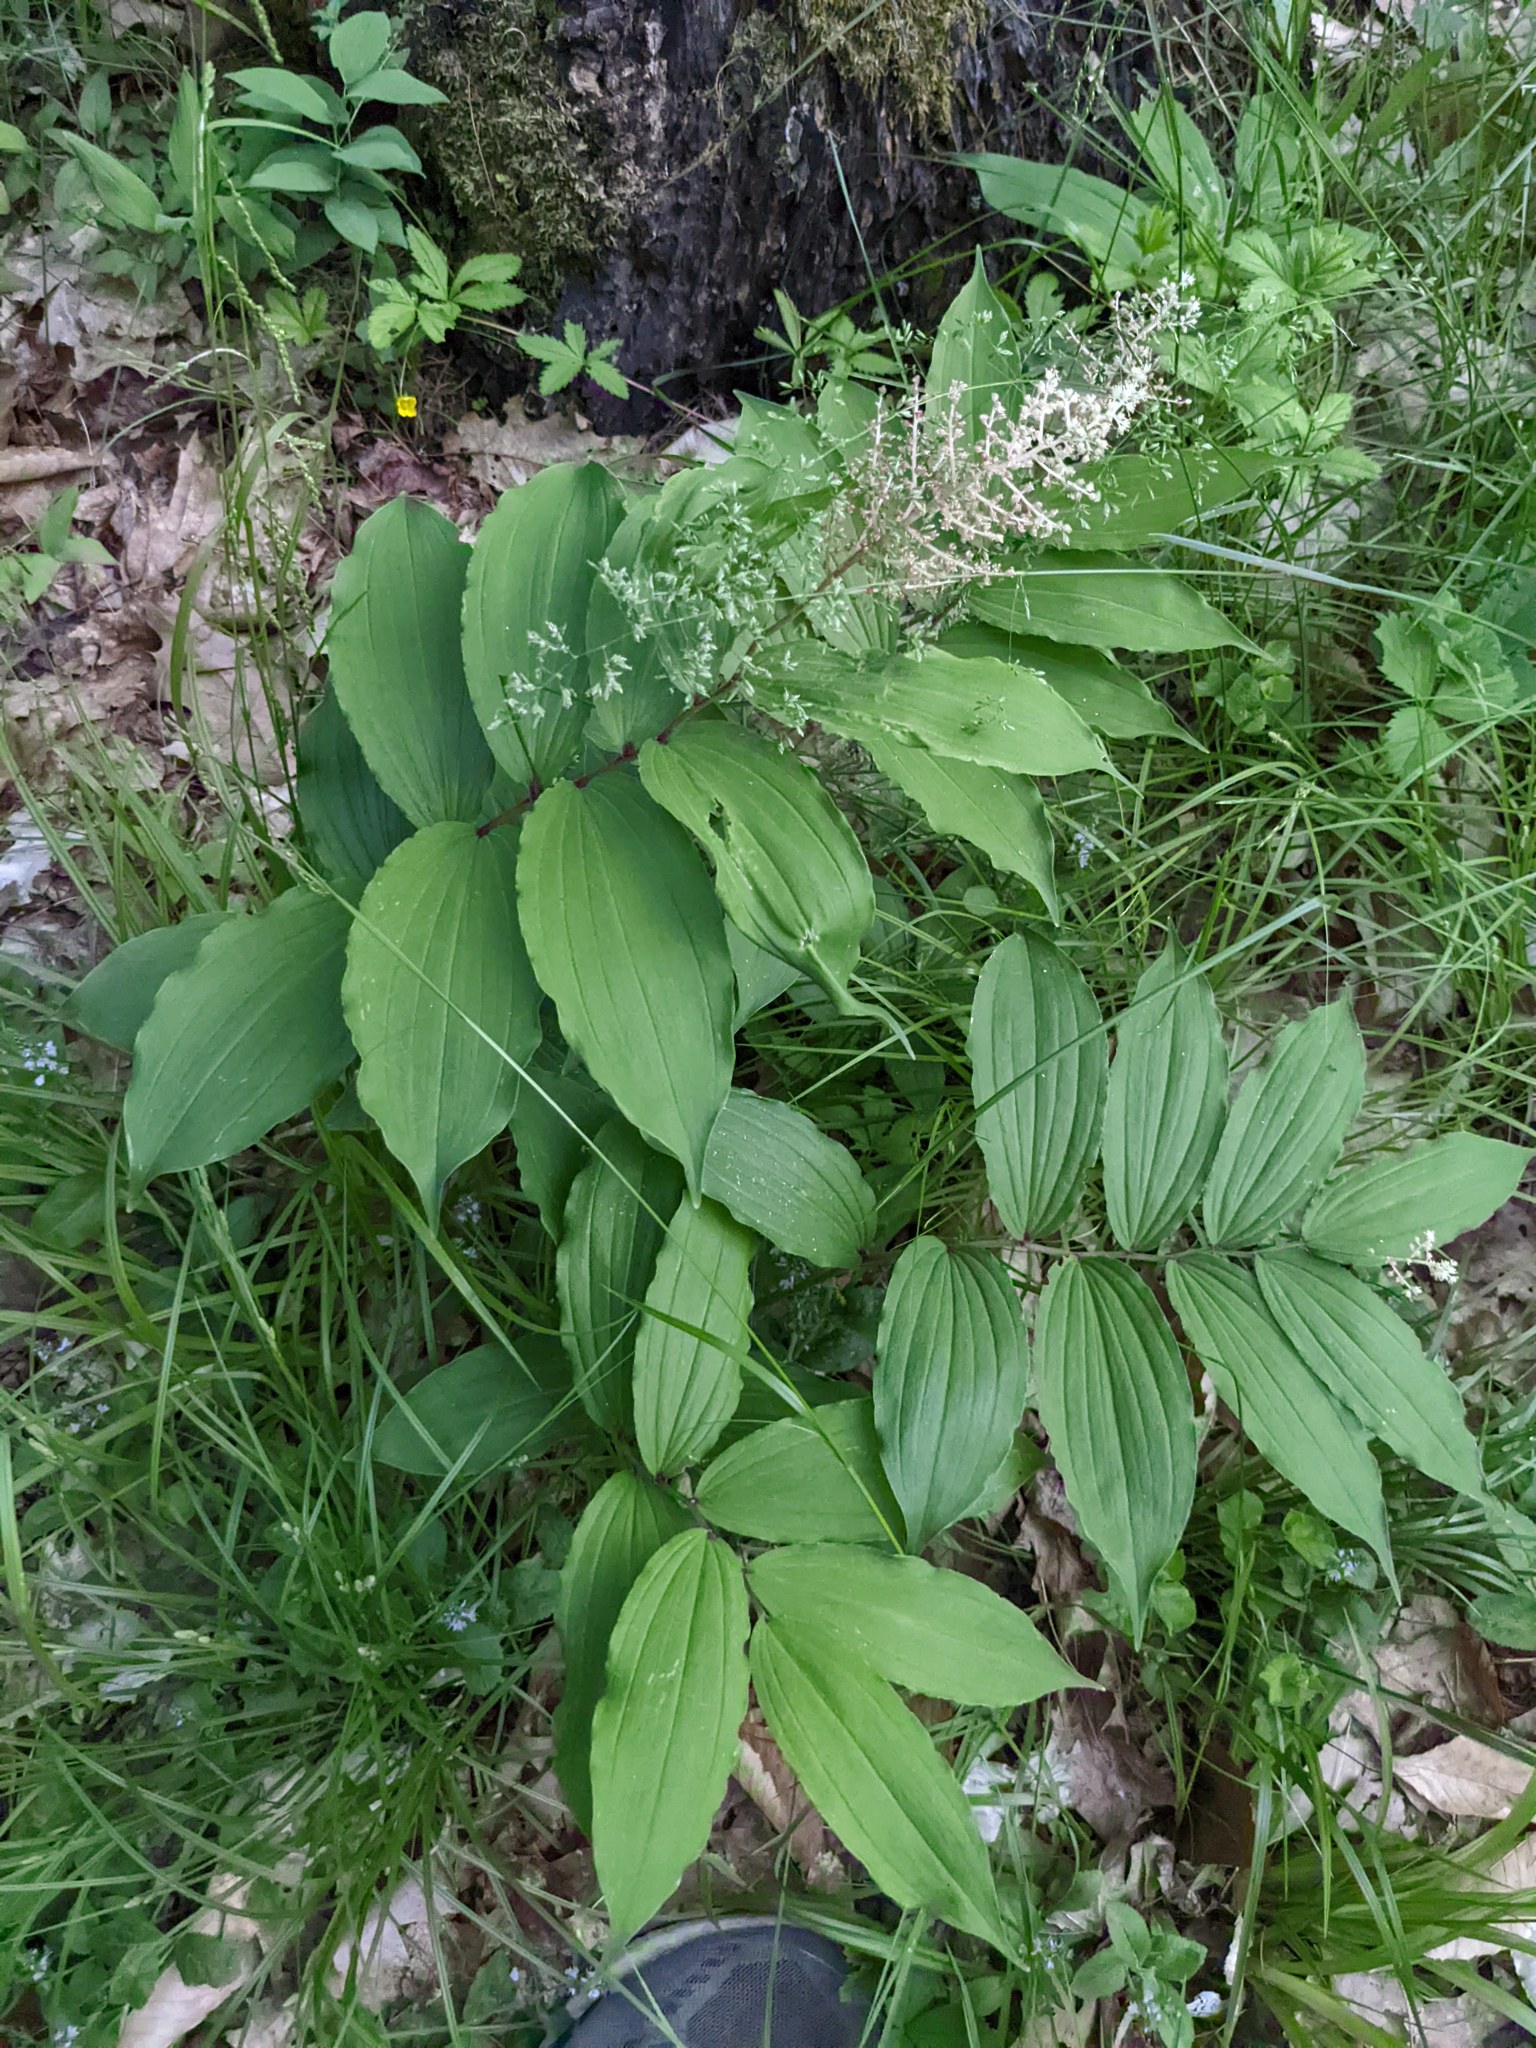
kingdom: Plantae
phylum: Tracheophyta
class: Liliopsida
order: Asparagales
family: Asparagaceae
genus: Maianthemum
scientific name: Maianthemum racemosum
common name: False spikenard
